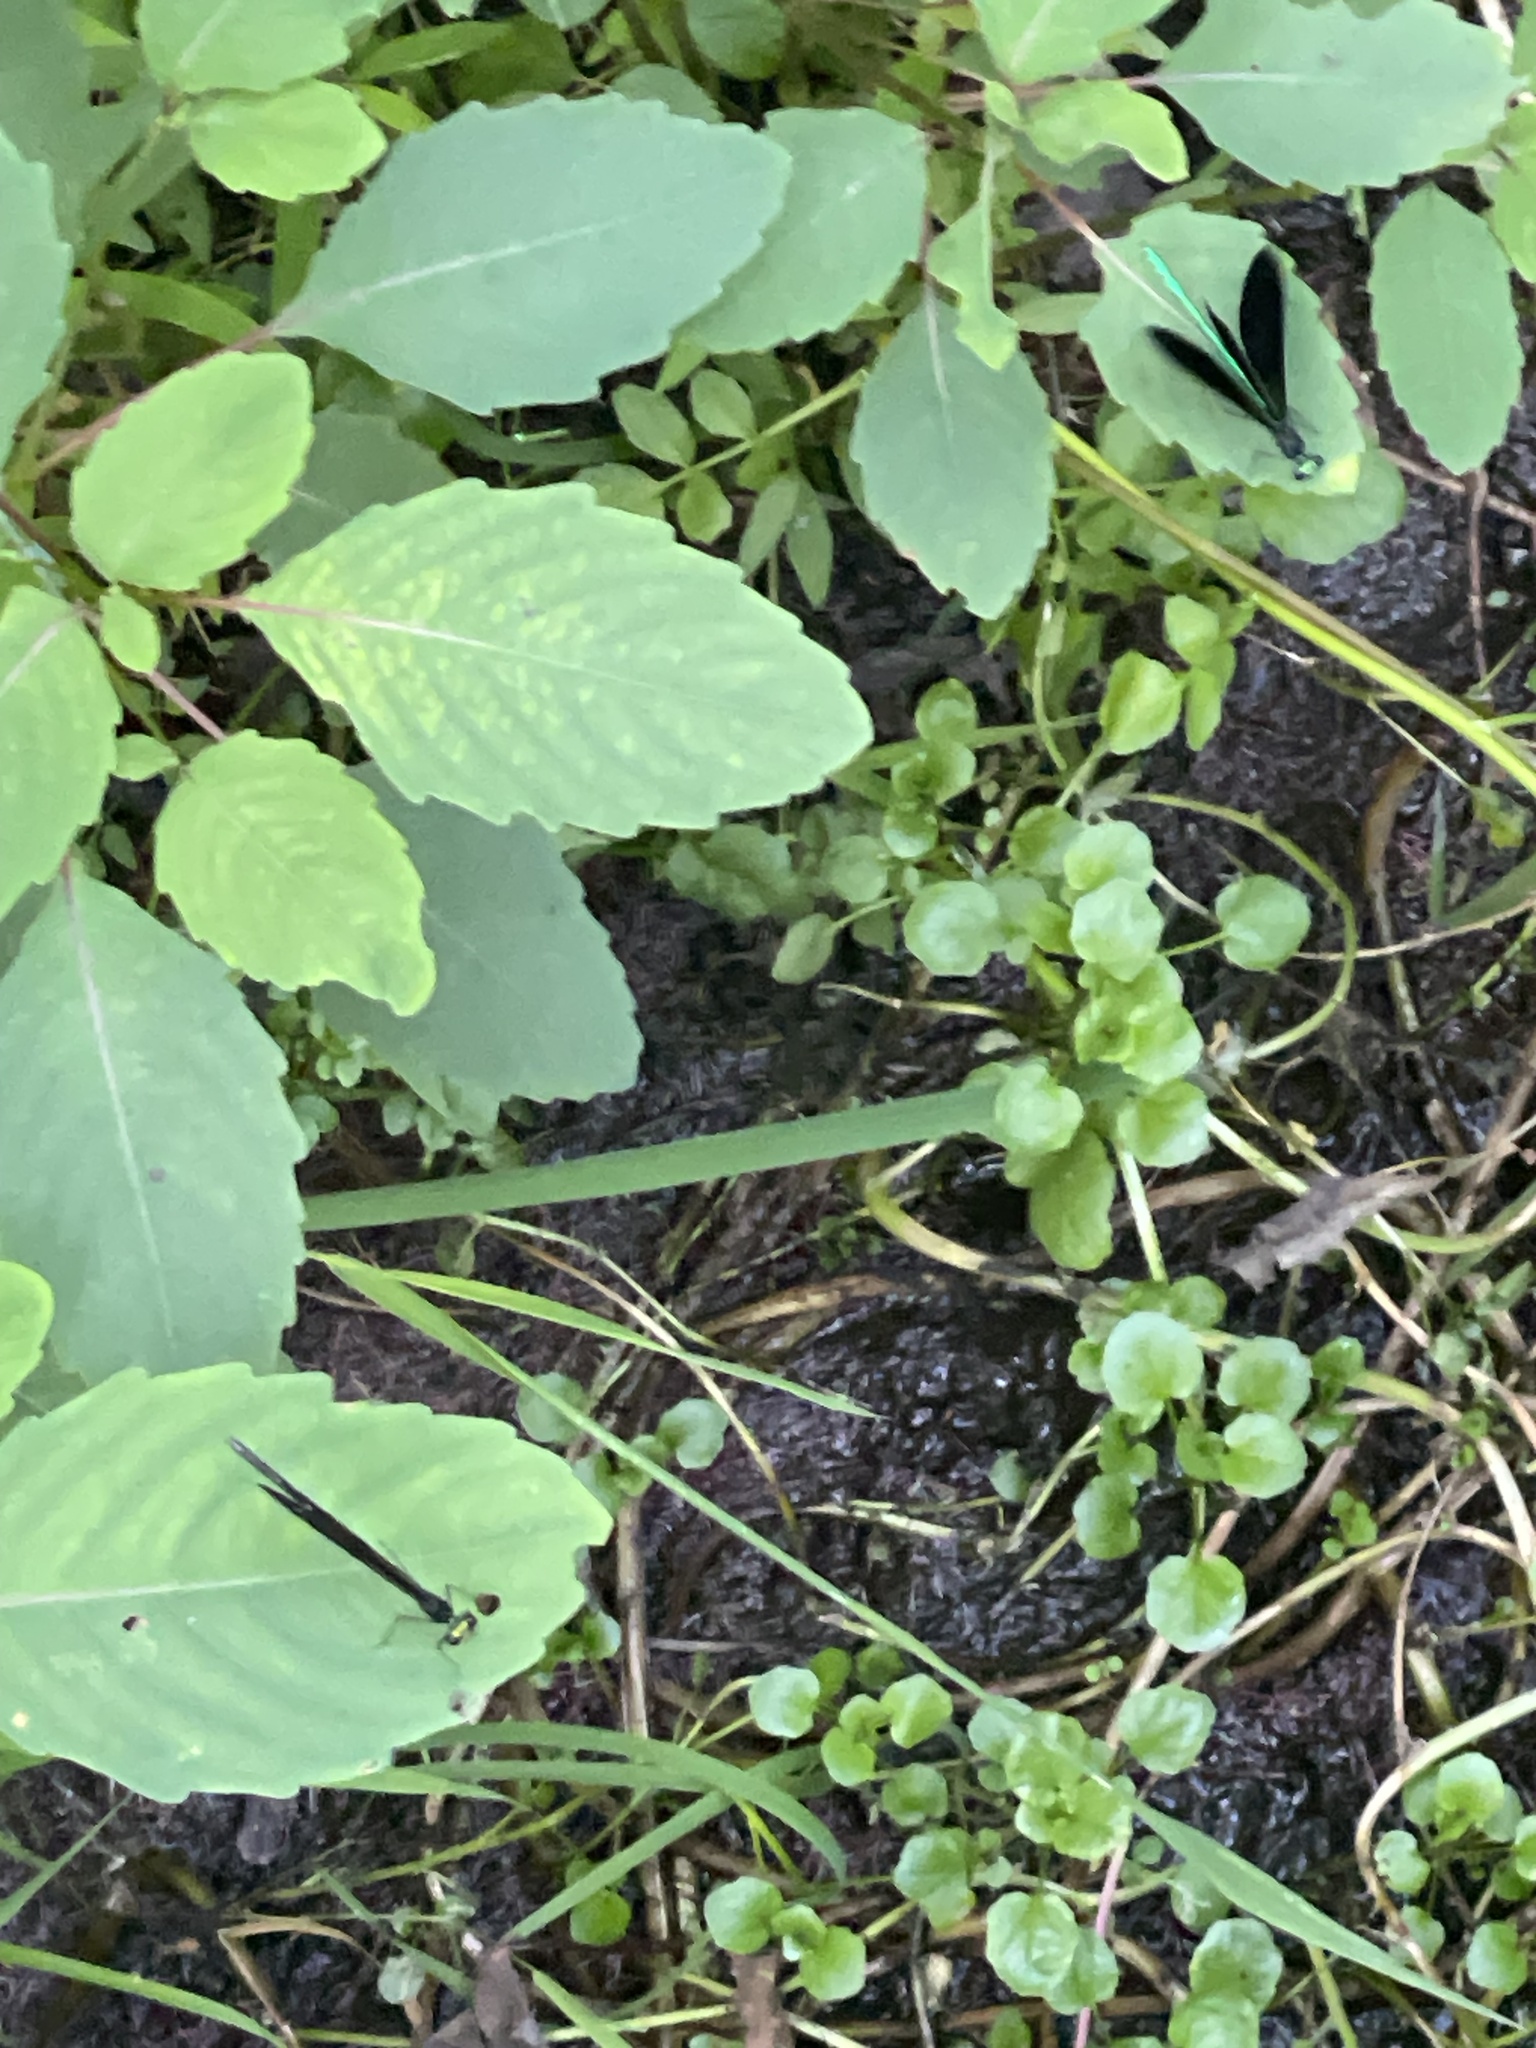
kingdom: Animalia
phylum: Arthropoda
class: Insecta
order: Odonata
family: Calopterygidae
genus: Calopteryx
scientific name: Calopteryx maculata
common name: Ebony jewelwing
